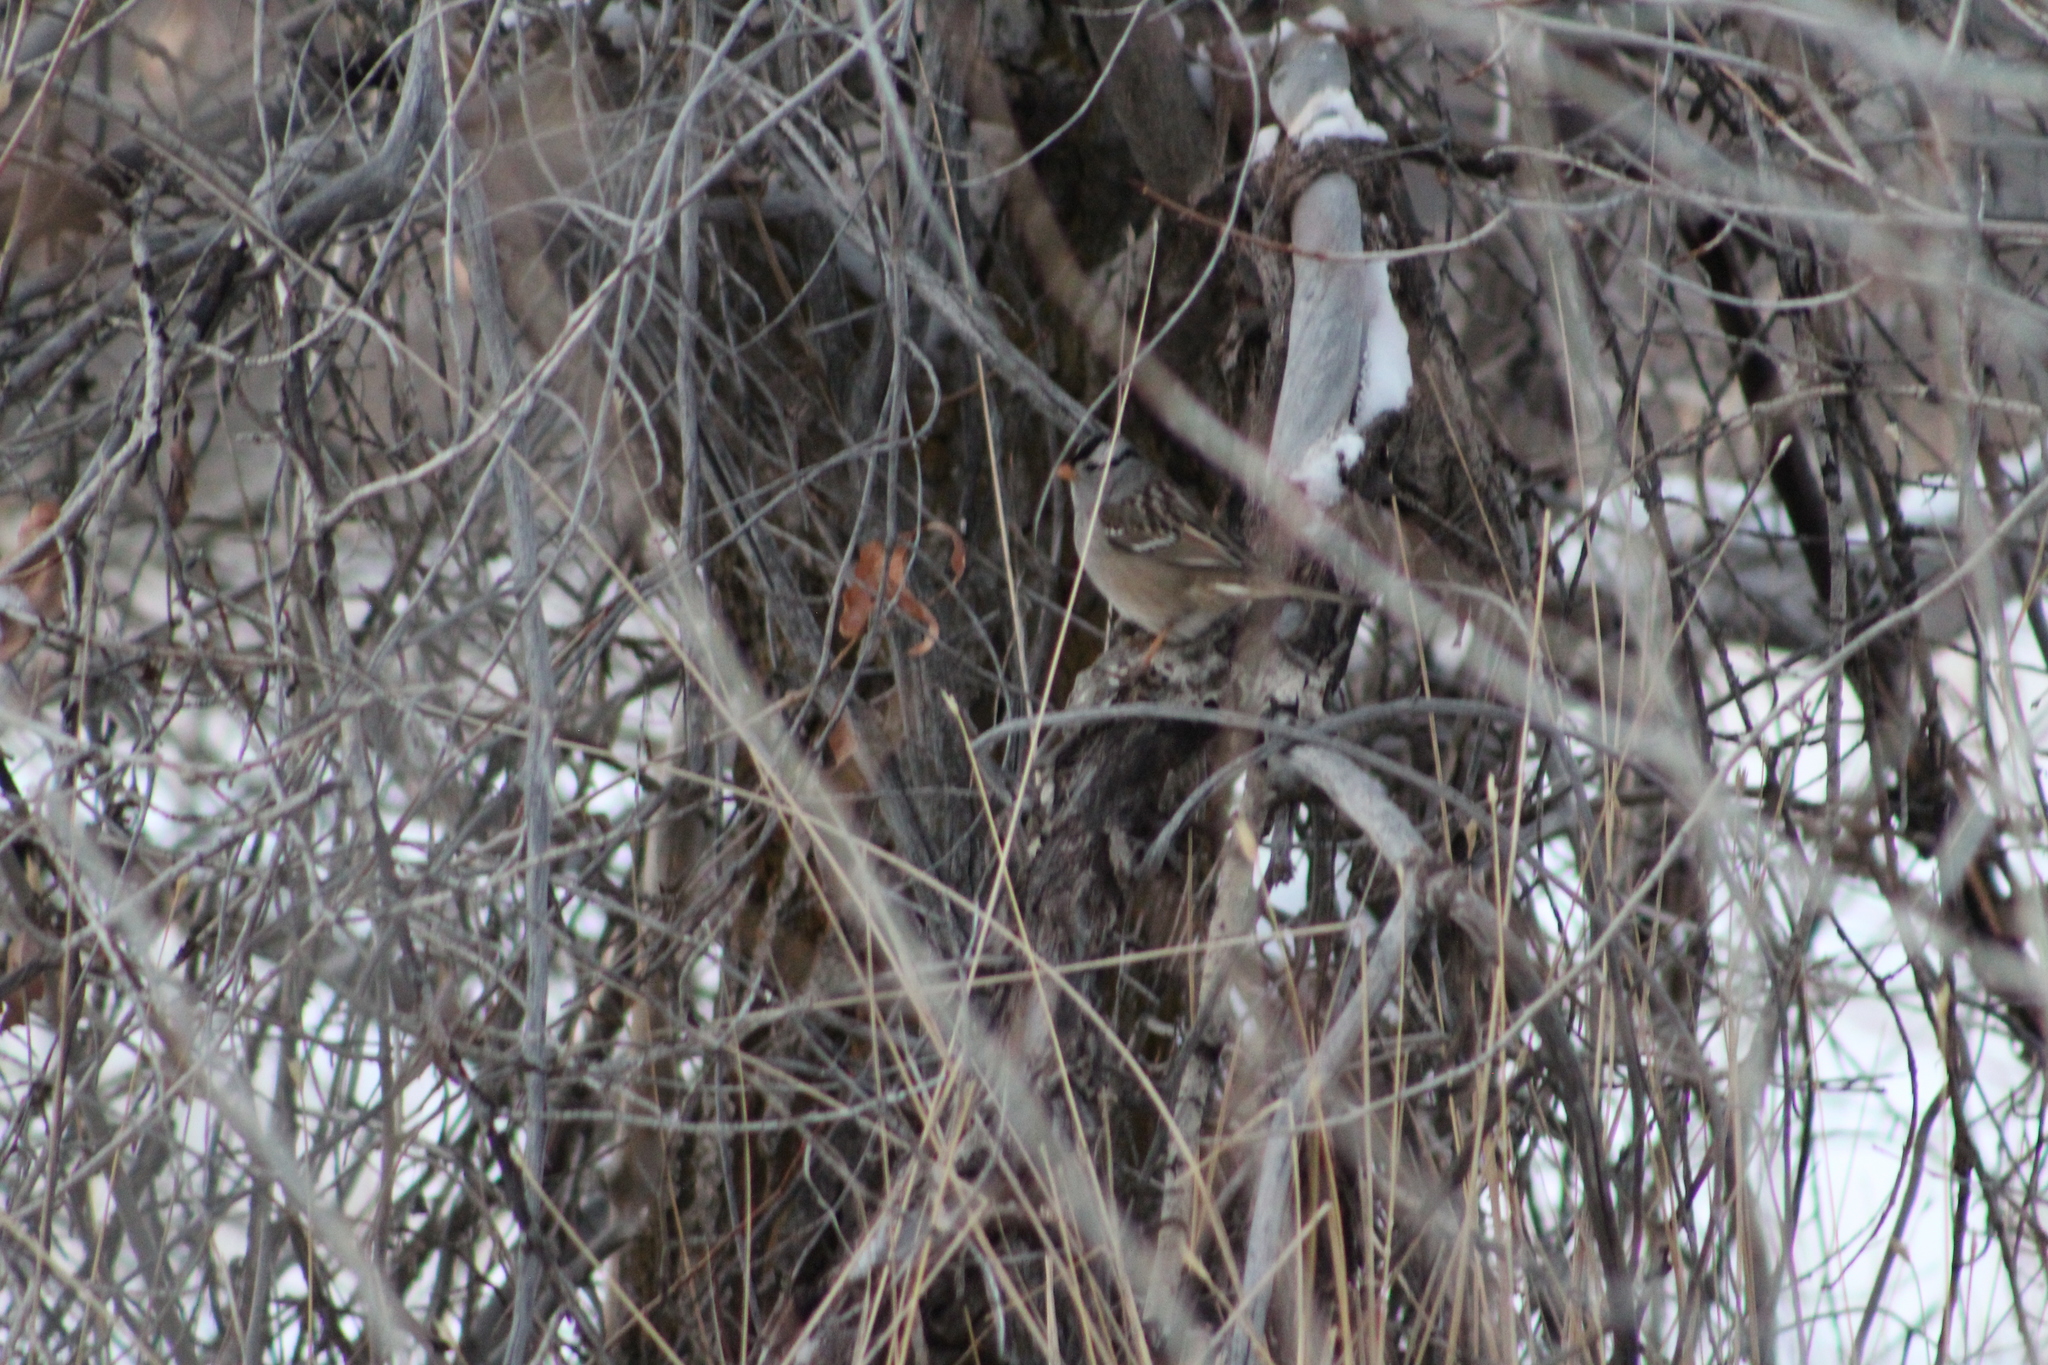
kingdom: Animalia
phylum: Chordata
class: Aves
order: Passeriformes
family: Passerellidae
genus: Zonotrichia
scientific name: Zonotrichia leucophrys
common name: White-crowned sparrow
